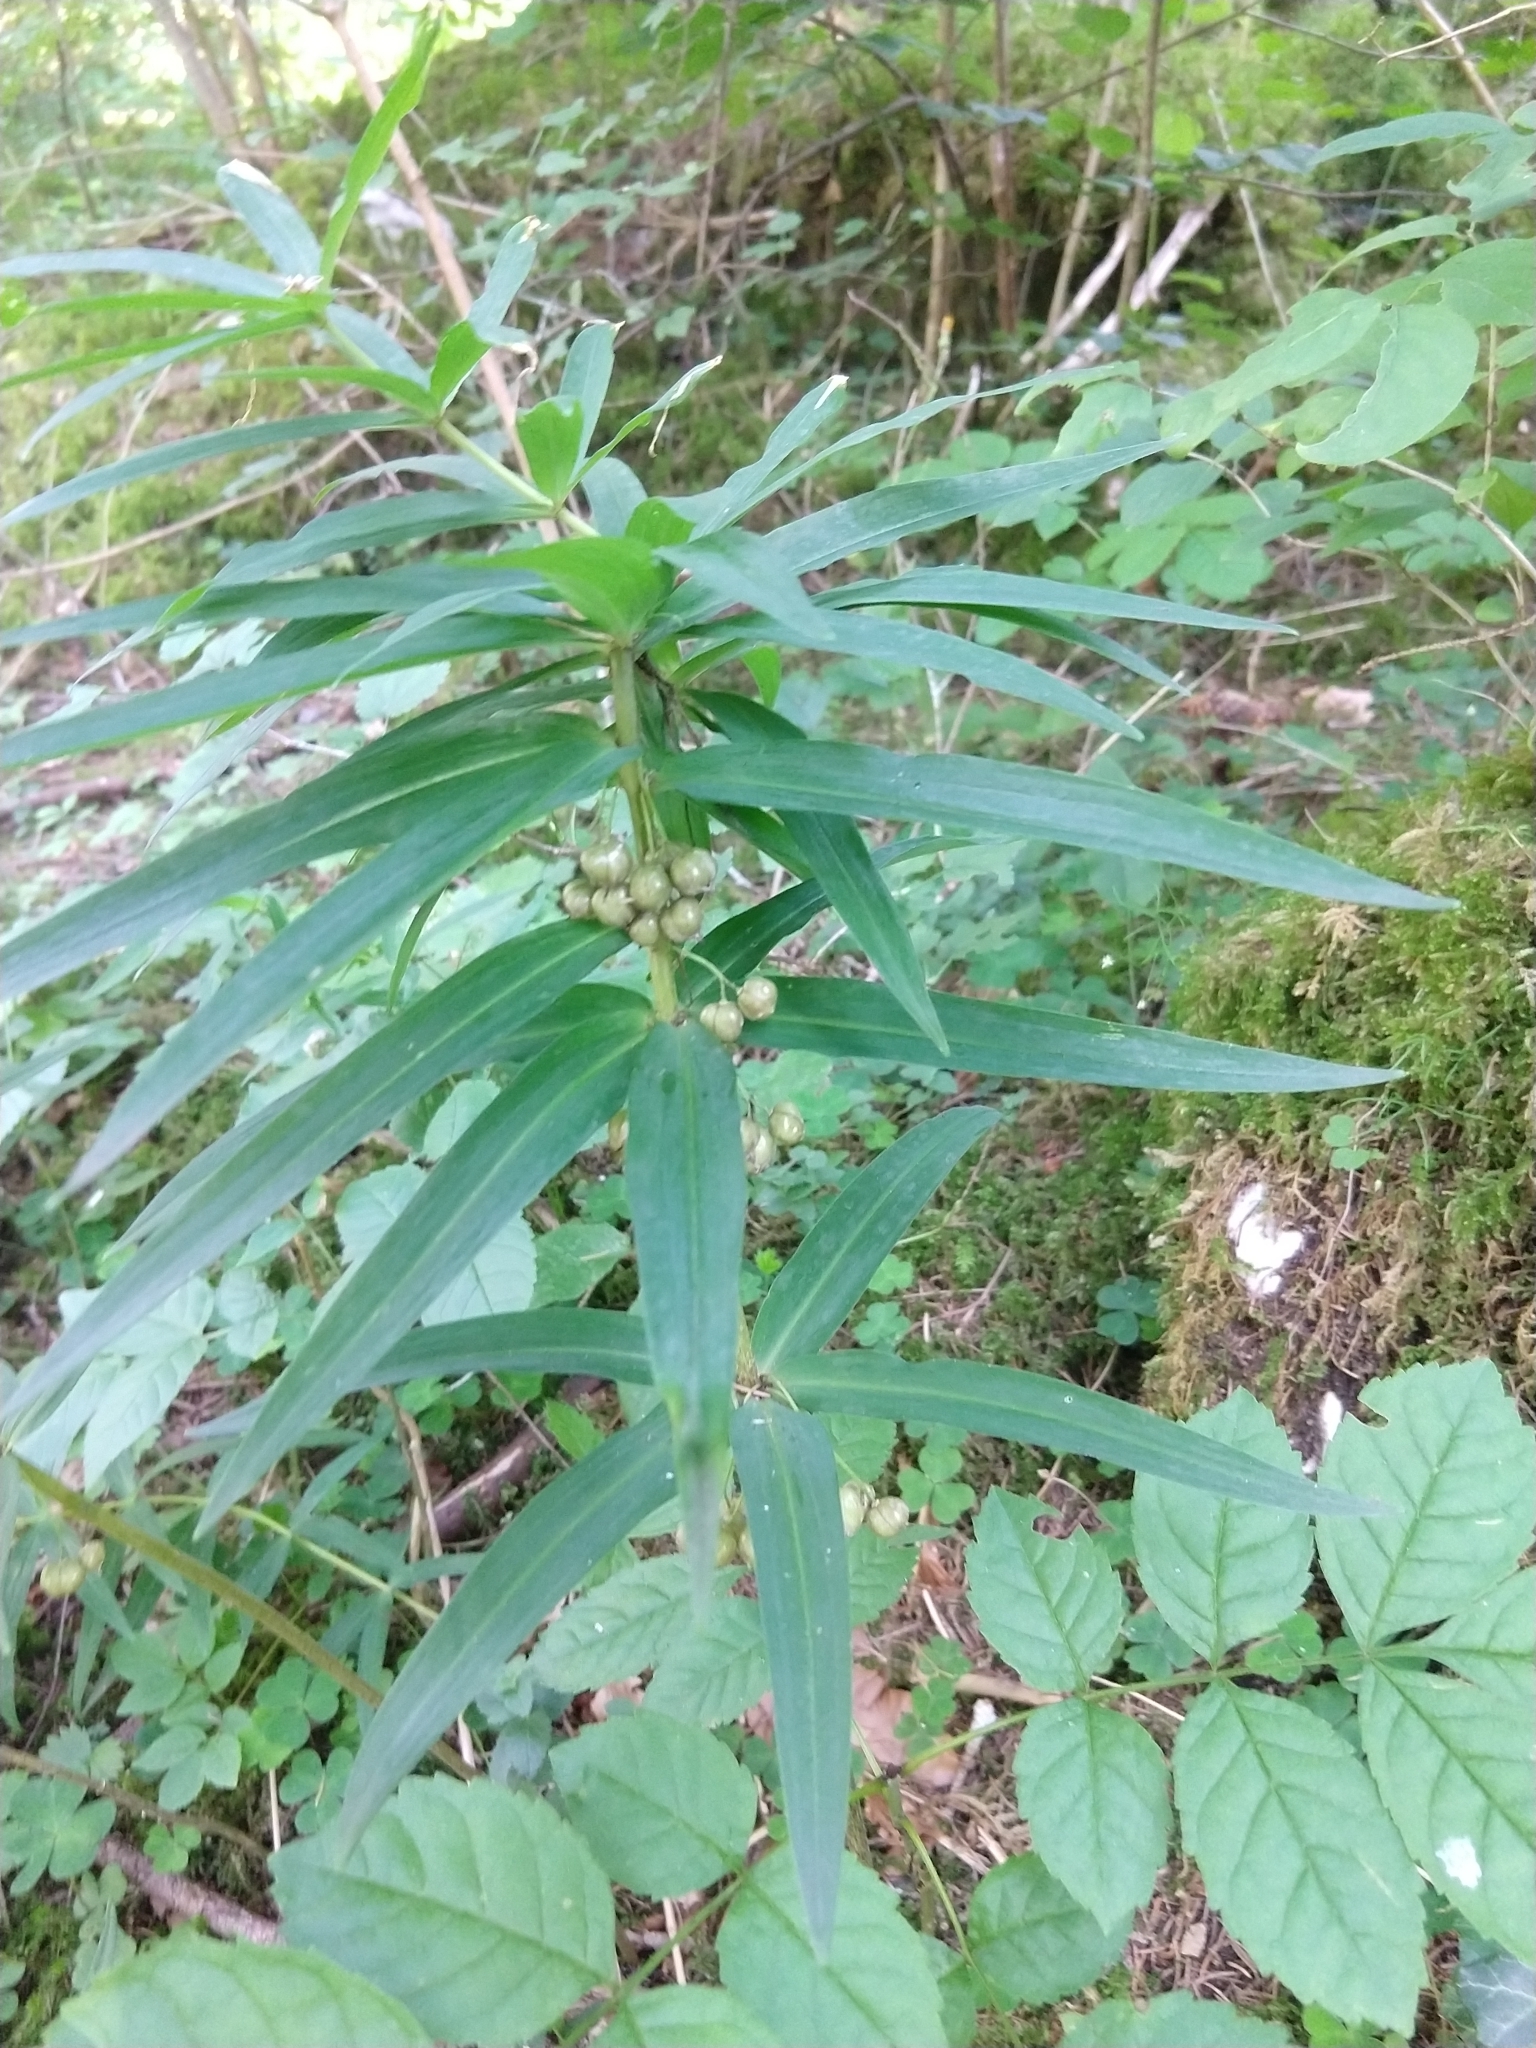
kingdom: Plantae
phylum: Tracheophyta
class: Liliopsida
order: Asparagales
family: Asparagaceae
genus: Polygonatum
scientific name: Polygonatum verticillatum
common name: Whorled solomon's-seal
